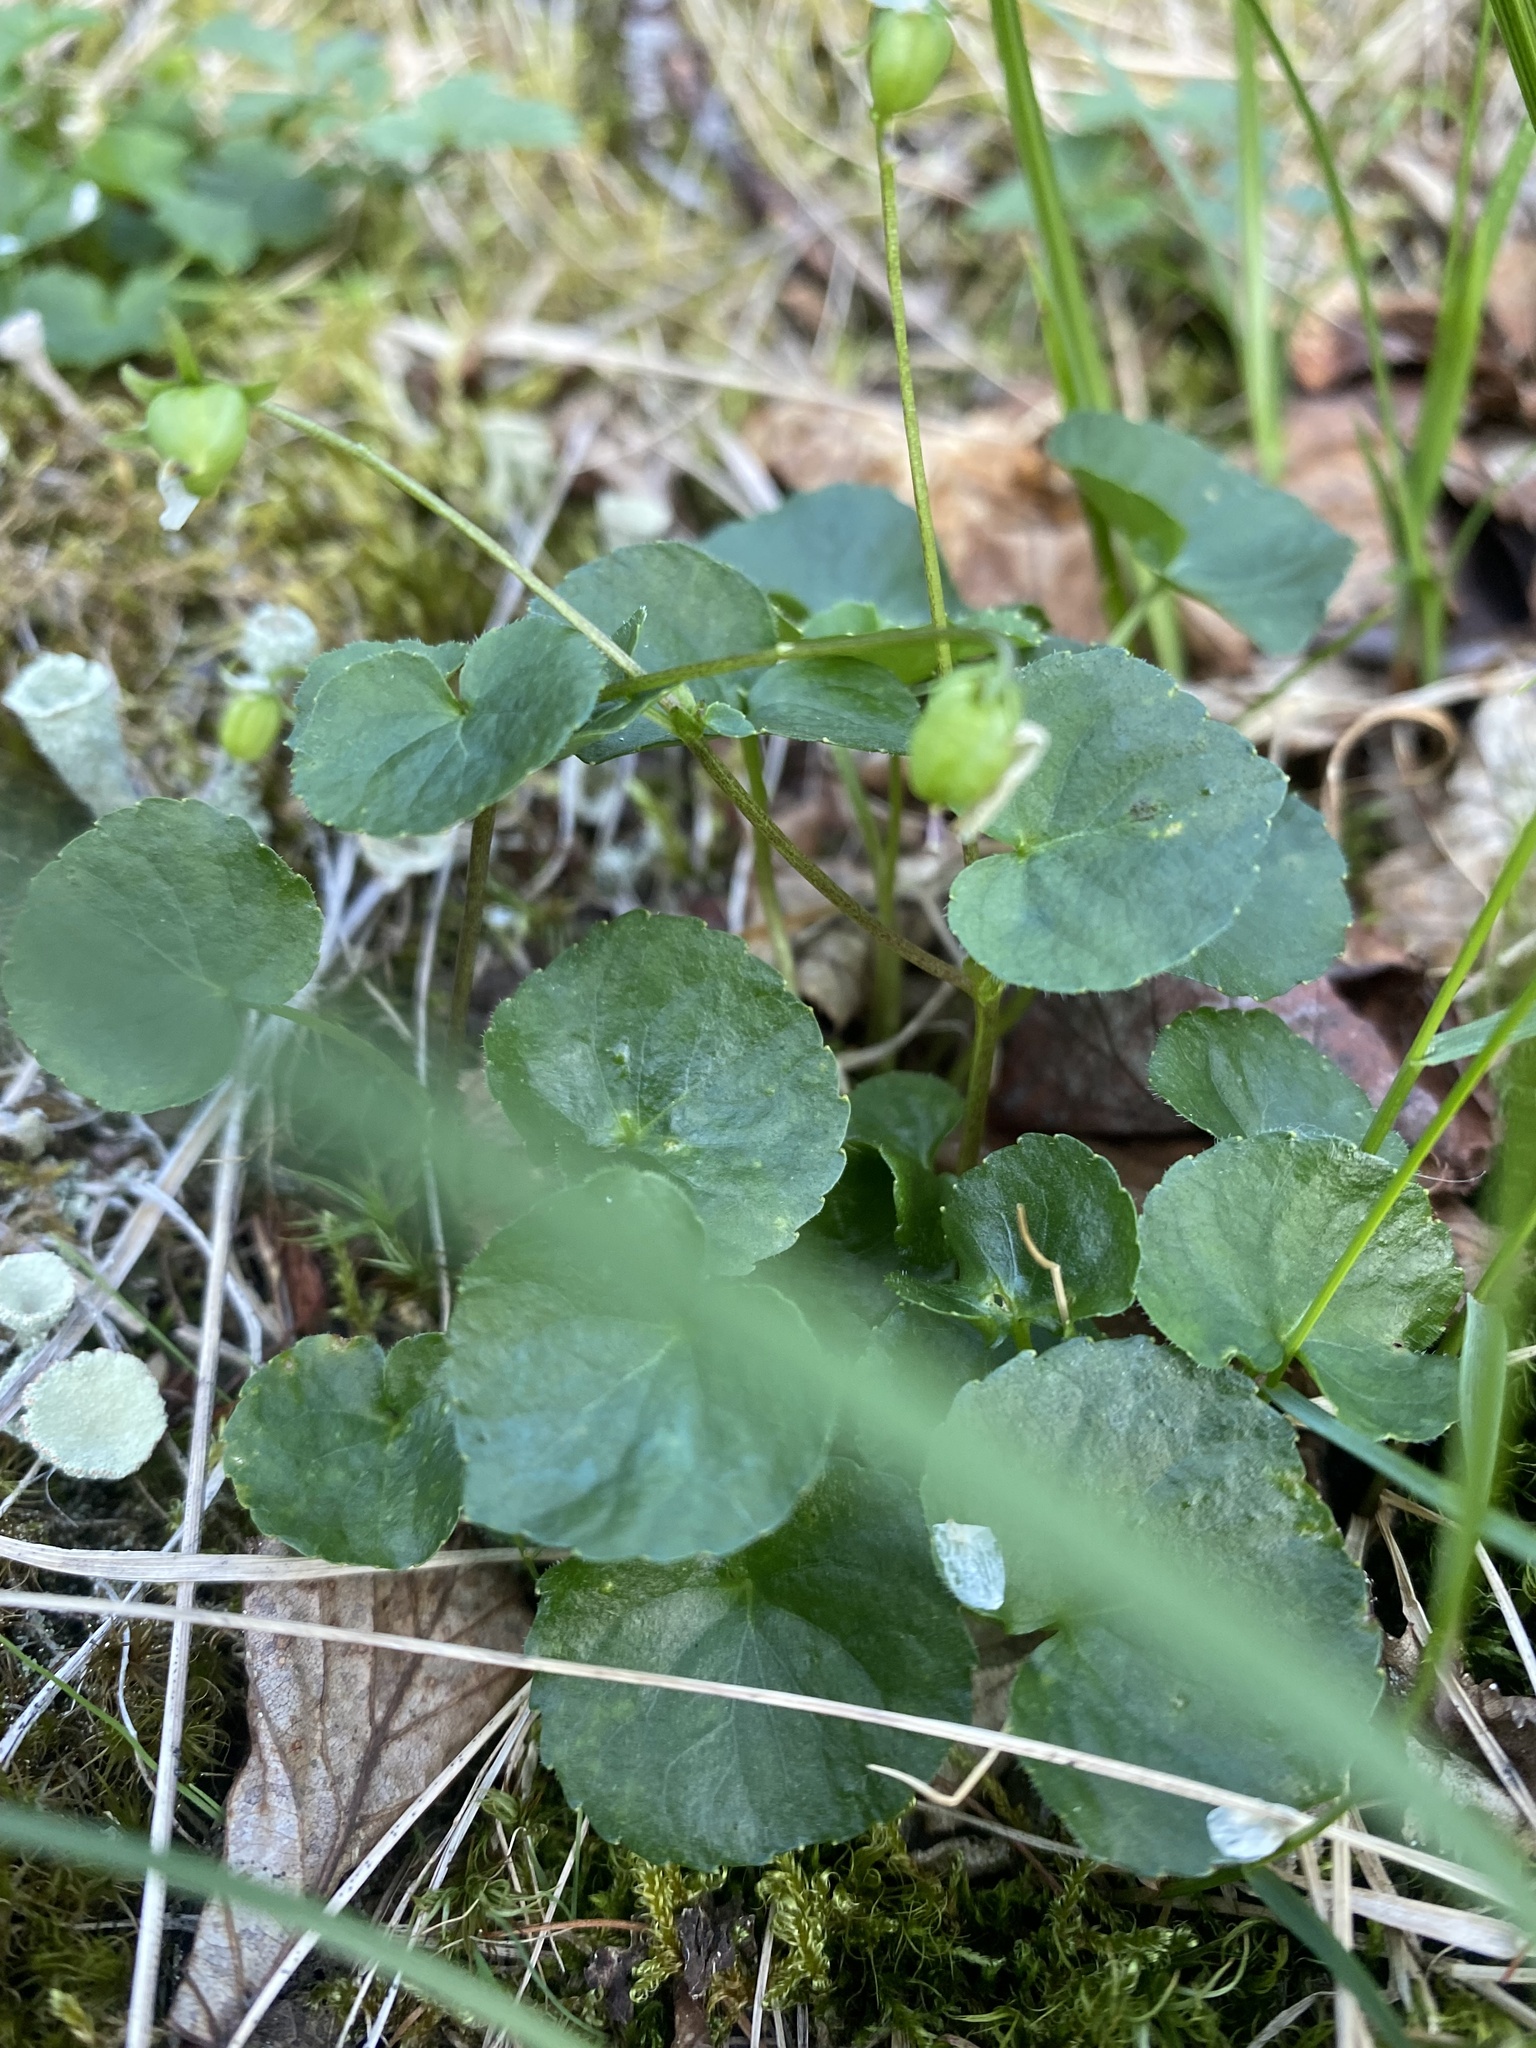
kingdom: Plantae
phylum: Tracheophyta
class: Magnoliopsida
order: Malpighiales
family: Violaceae
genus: Viola
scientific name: Viola biflora
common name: Alpine yellow violet
